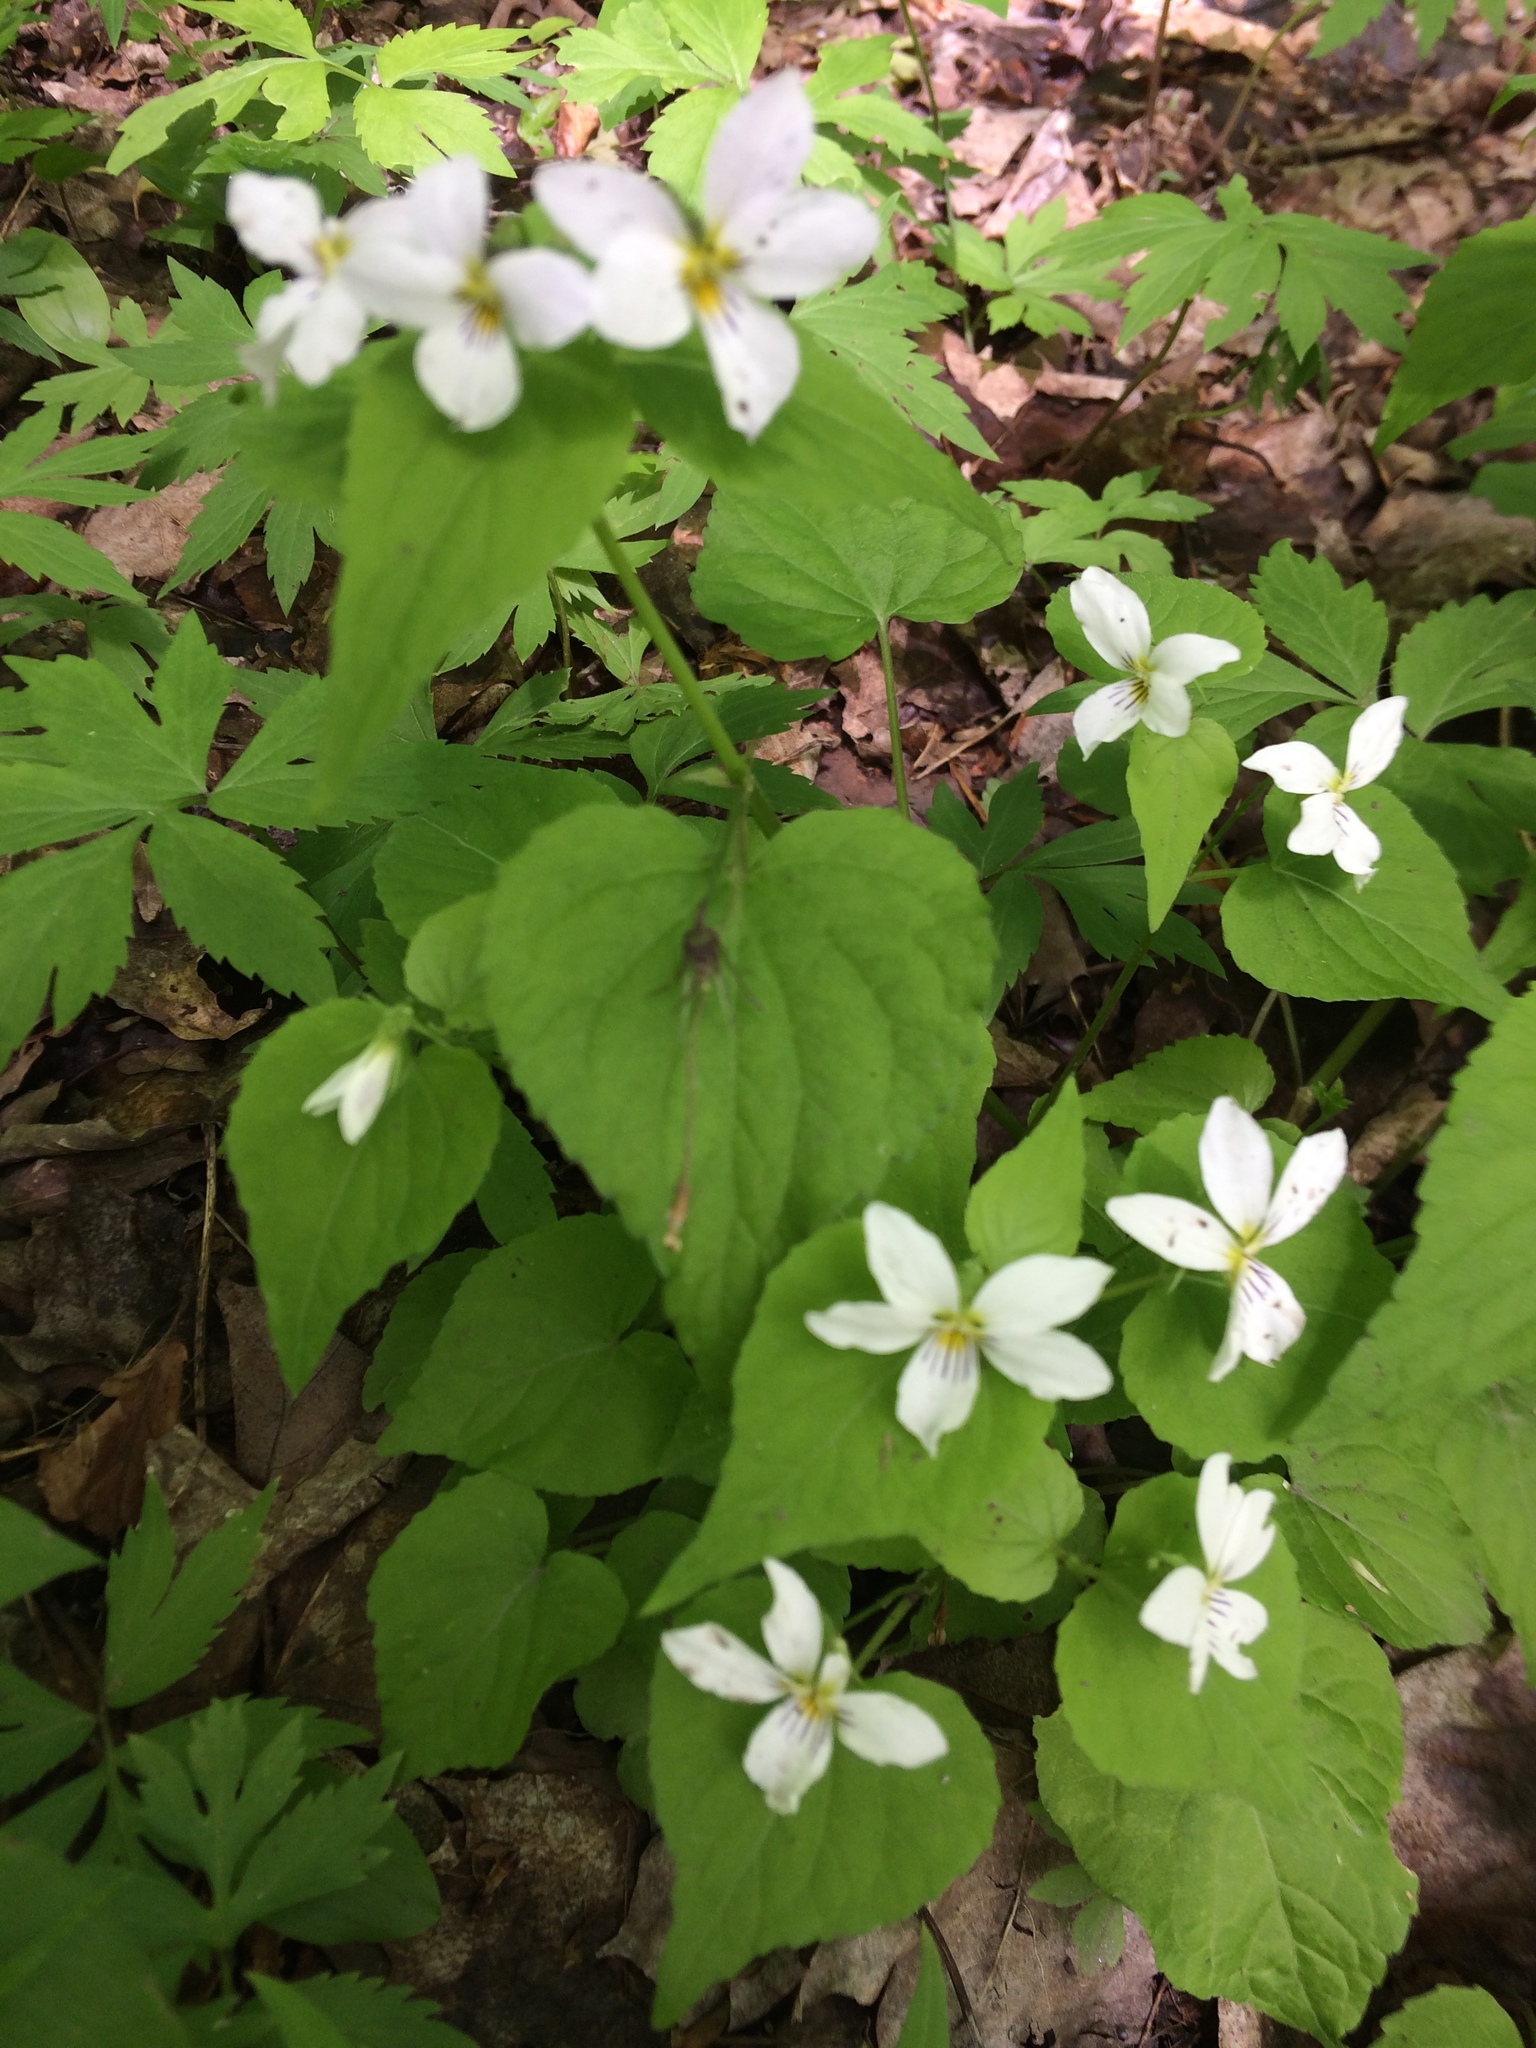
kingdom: Plantae
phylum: Tracheophyta
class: Magnoliopsida
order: Malpighiales
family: Violaceae
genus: Viola
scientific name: Viola canadensis
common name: Canada violet
